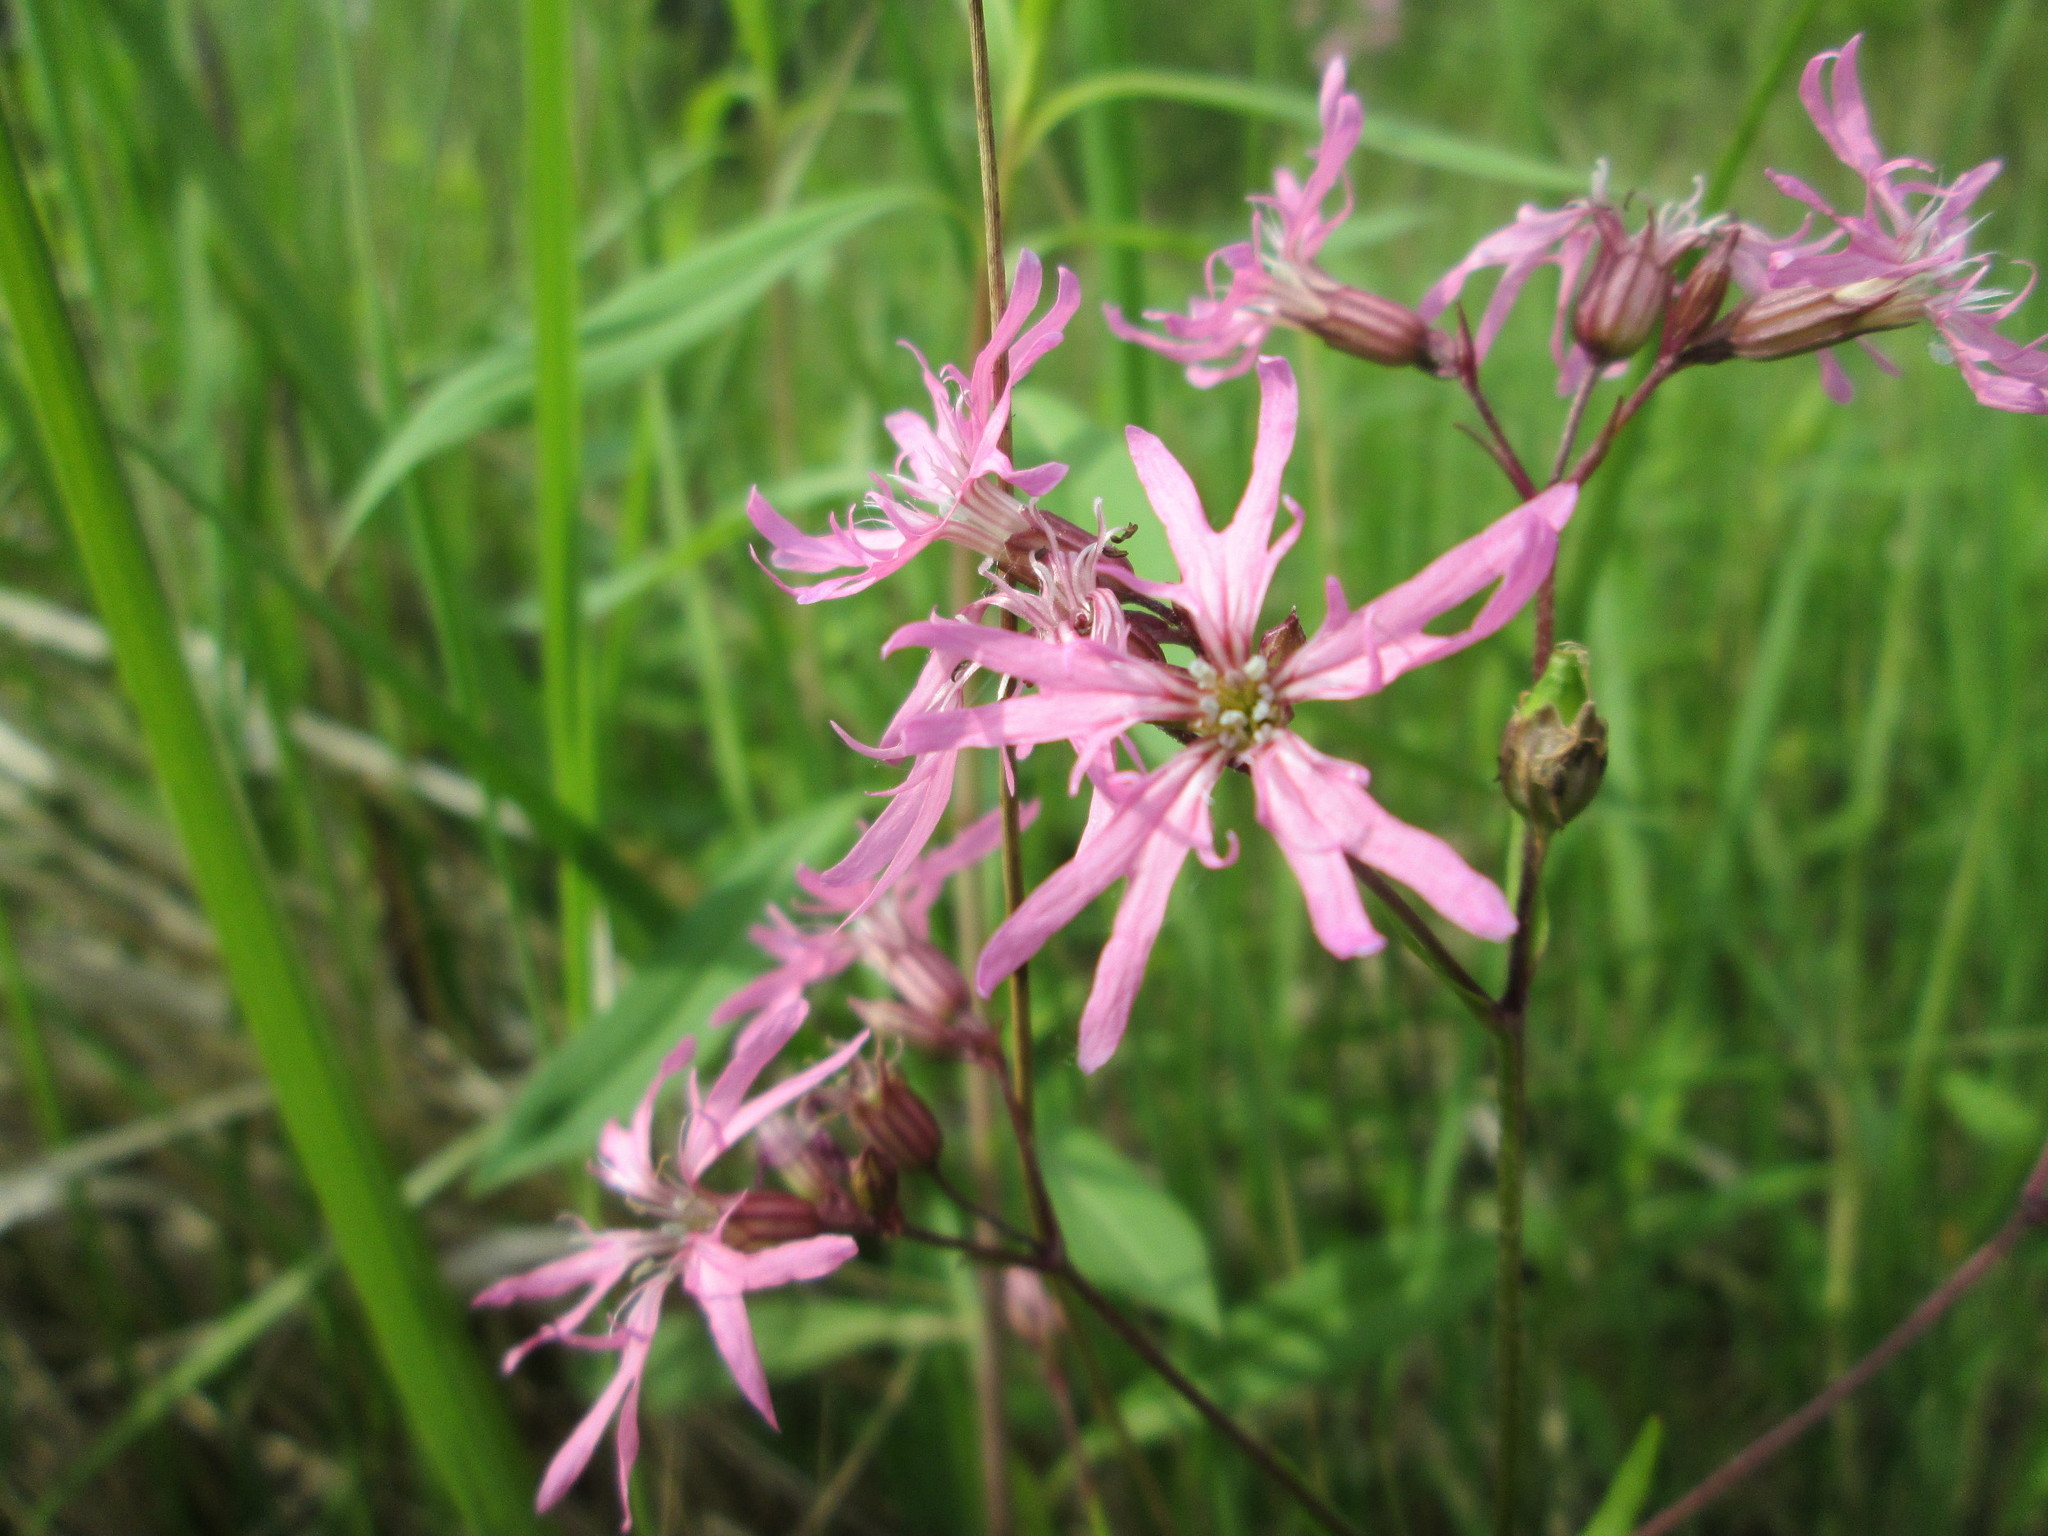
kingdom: Plantae
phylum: Tracheophyta
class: Magnoliopsida
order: Caryophyllales
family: Caryophyllaceae
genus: Silene
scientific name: Silene flos-cuculi
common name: Ragged-robin
